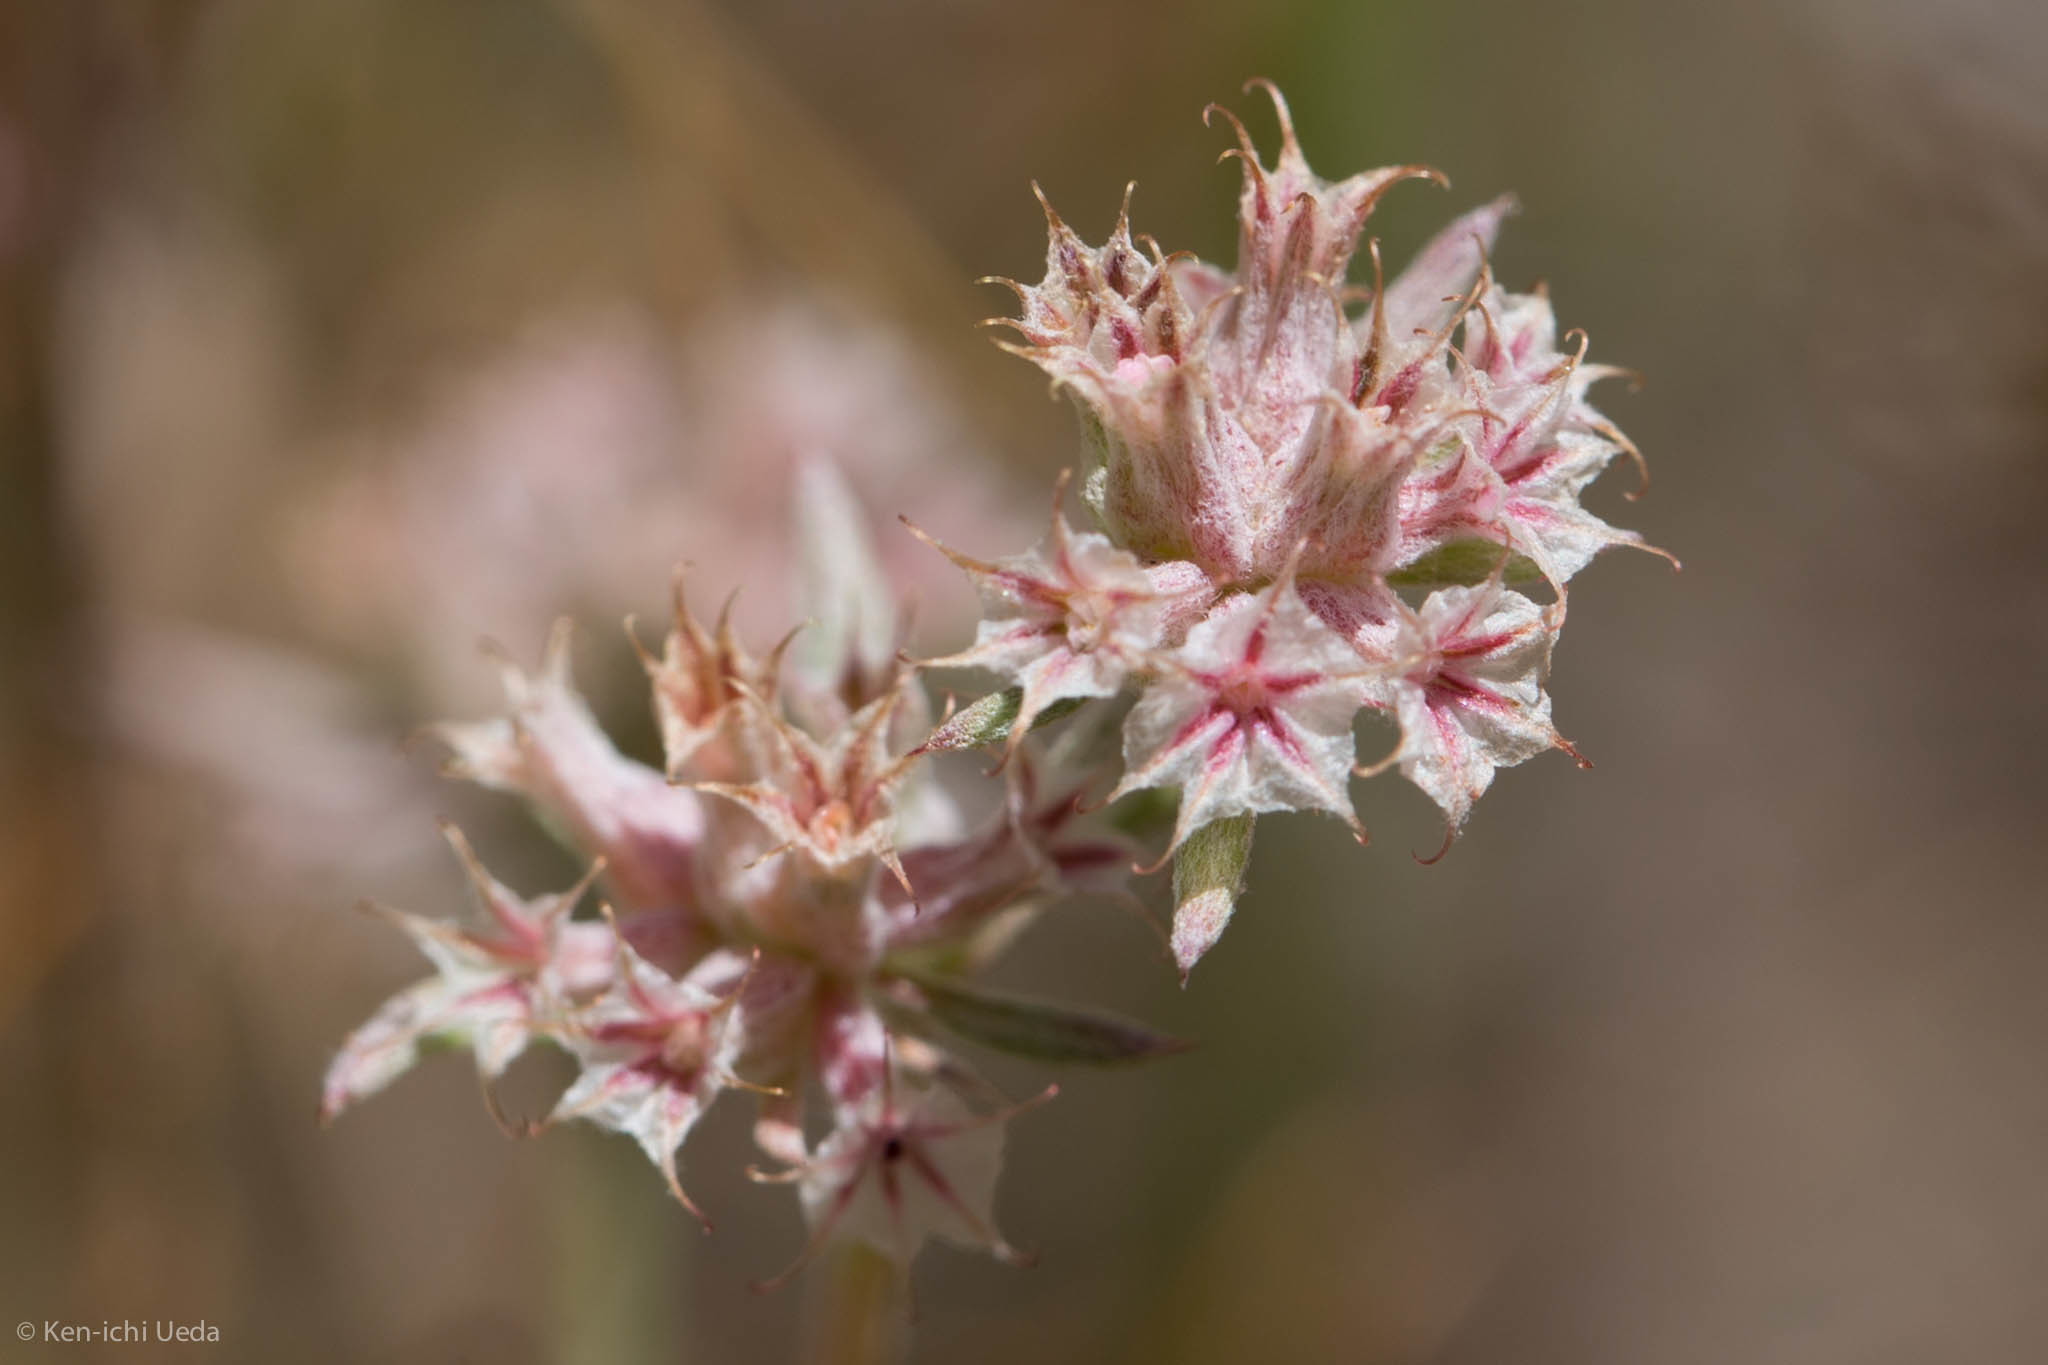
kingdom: Plantae
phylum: Tracheophyta
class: Magnoliopsida
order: Caryophyllales
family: Polygonaceae
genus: Chorizanthe
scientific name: Chorizanthe membranacea
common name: Pink spineflower
